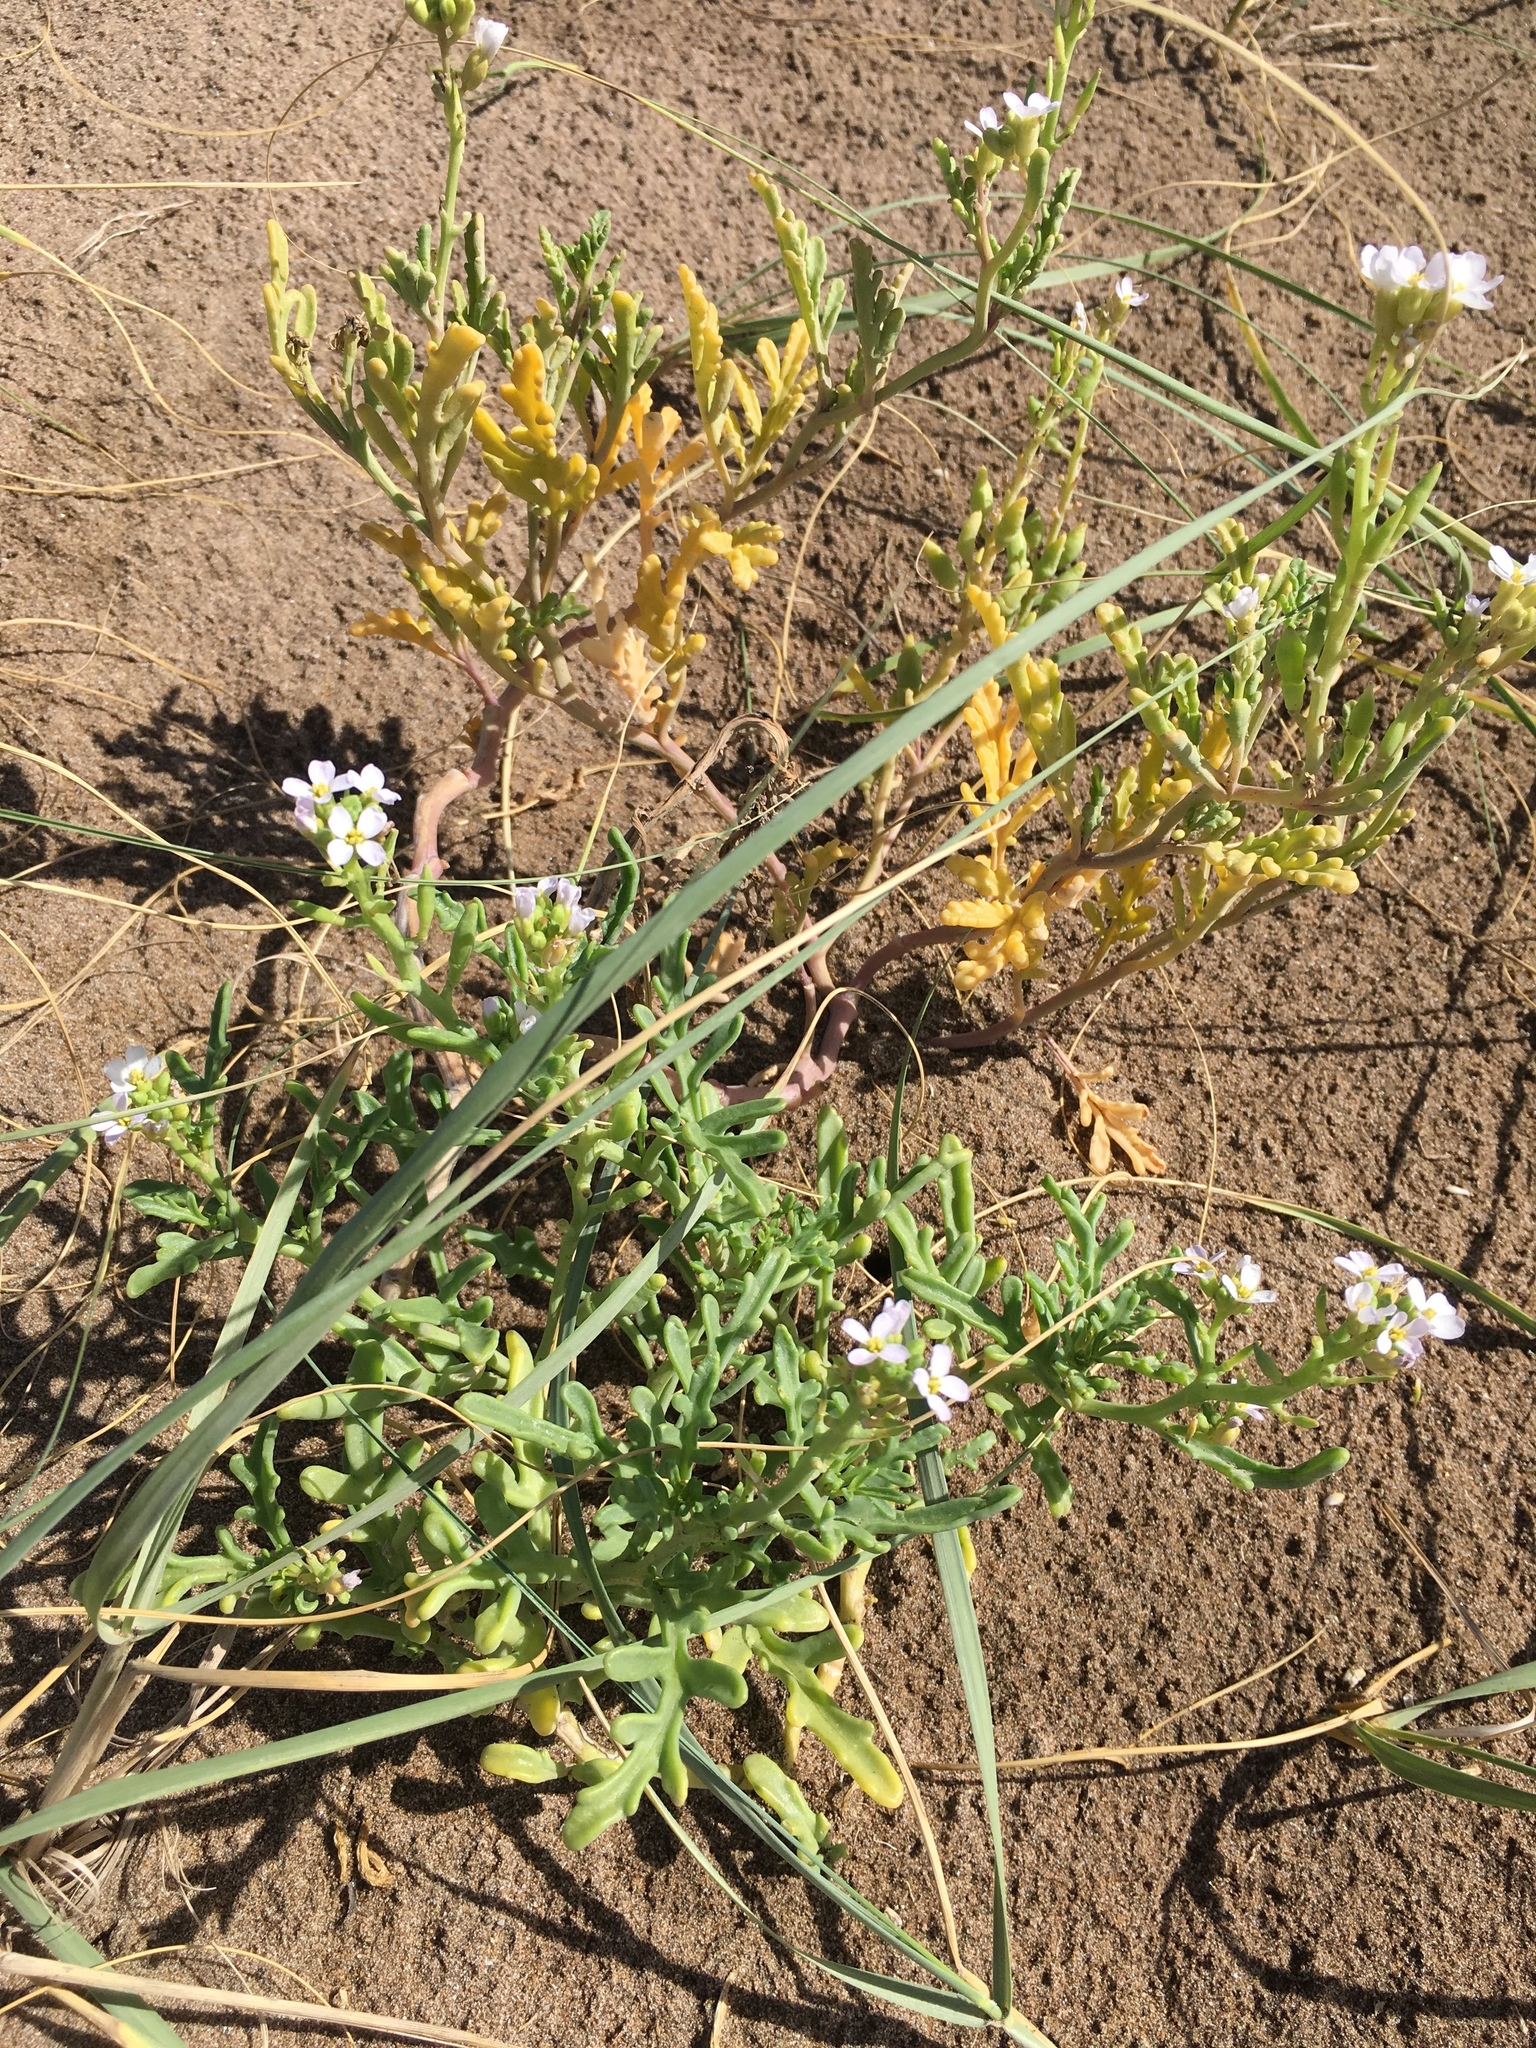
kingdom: Plantae
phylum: Tracheophyta
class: Magnoliopsida
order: Brassicales
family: Brassicaceae
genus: Cakile
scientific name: Cakile maritima
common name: Sea rocket
